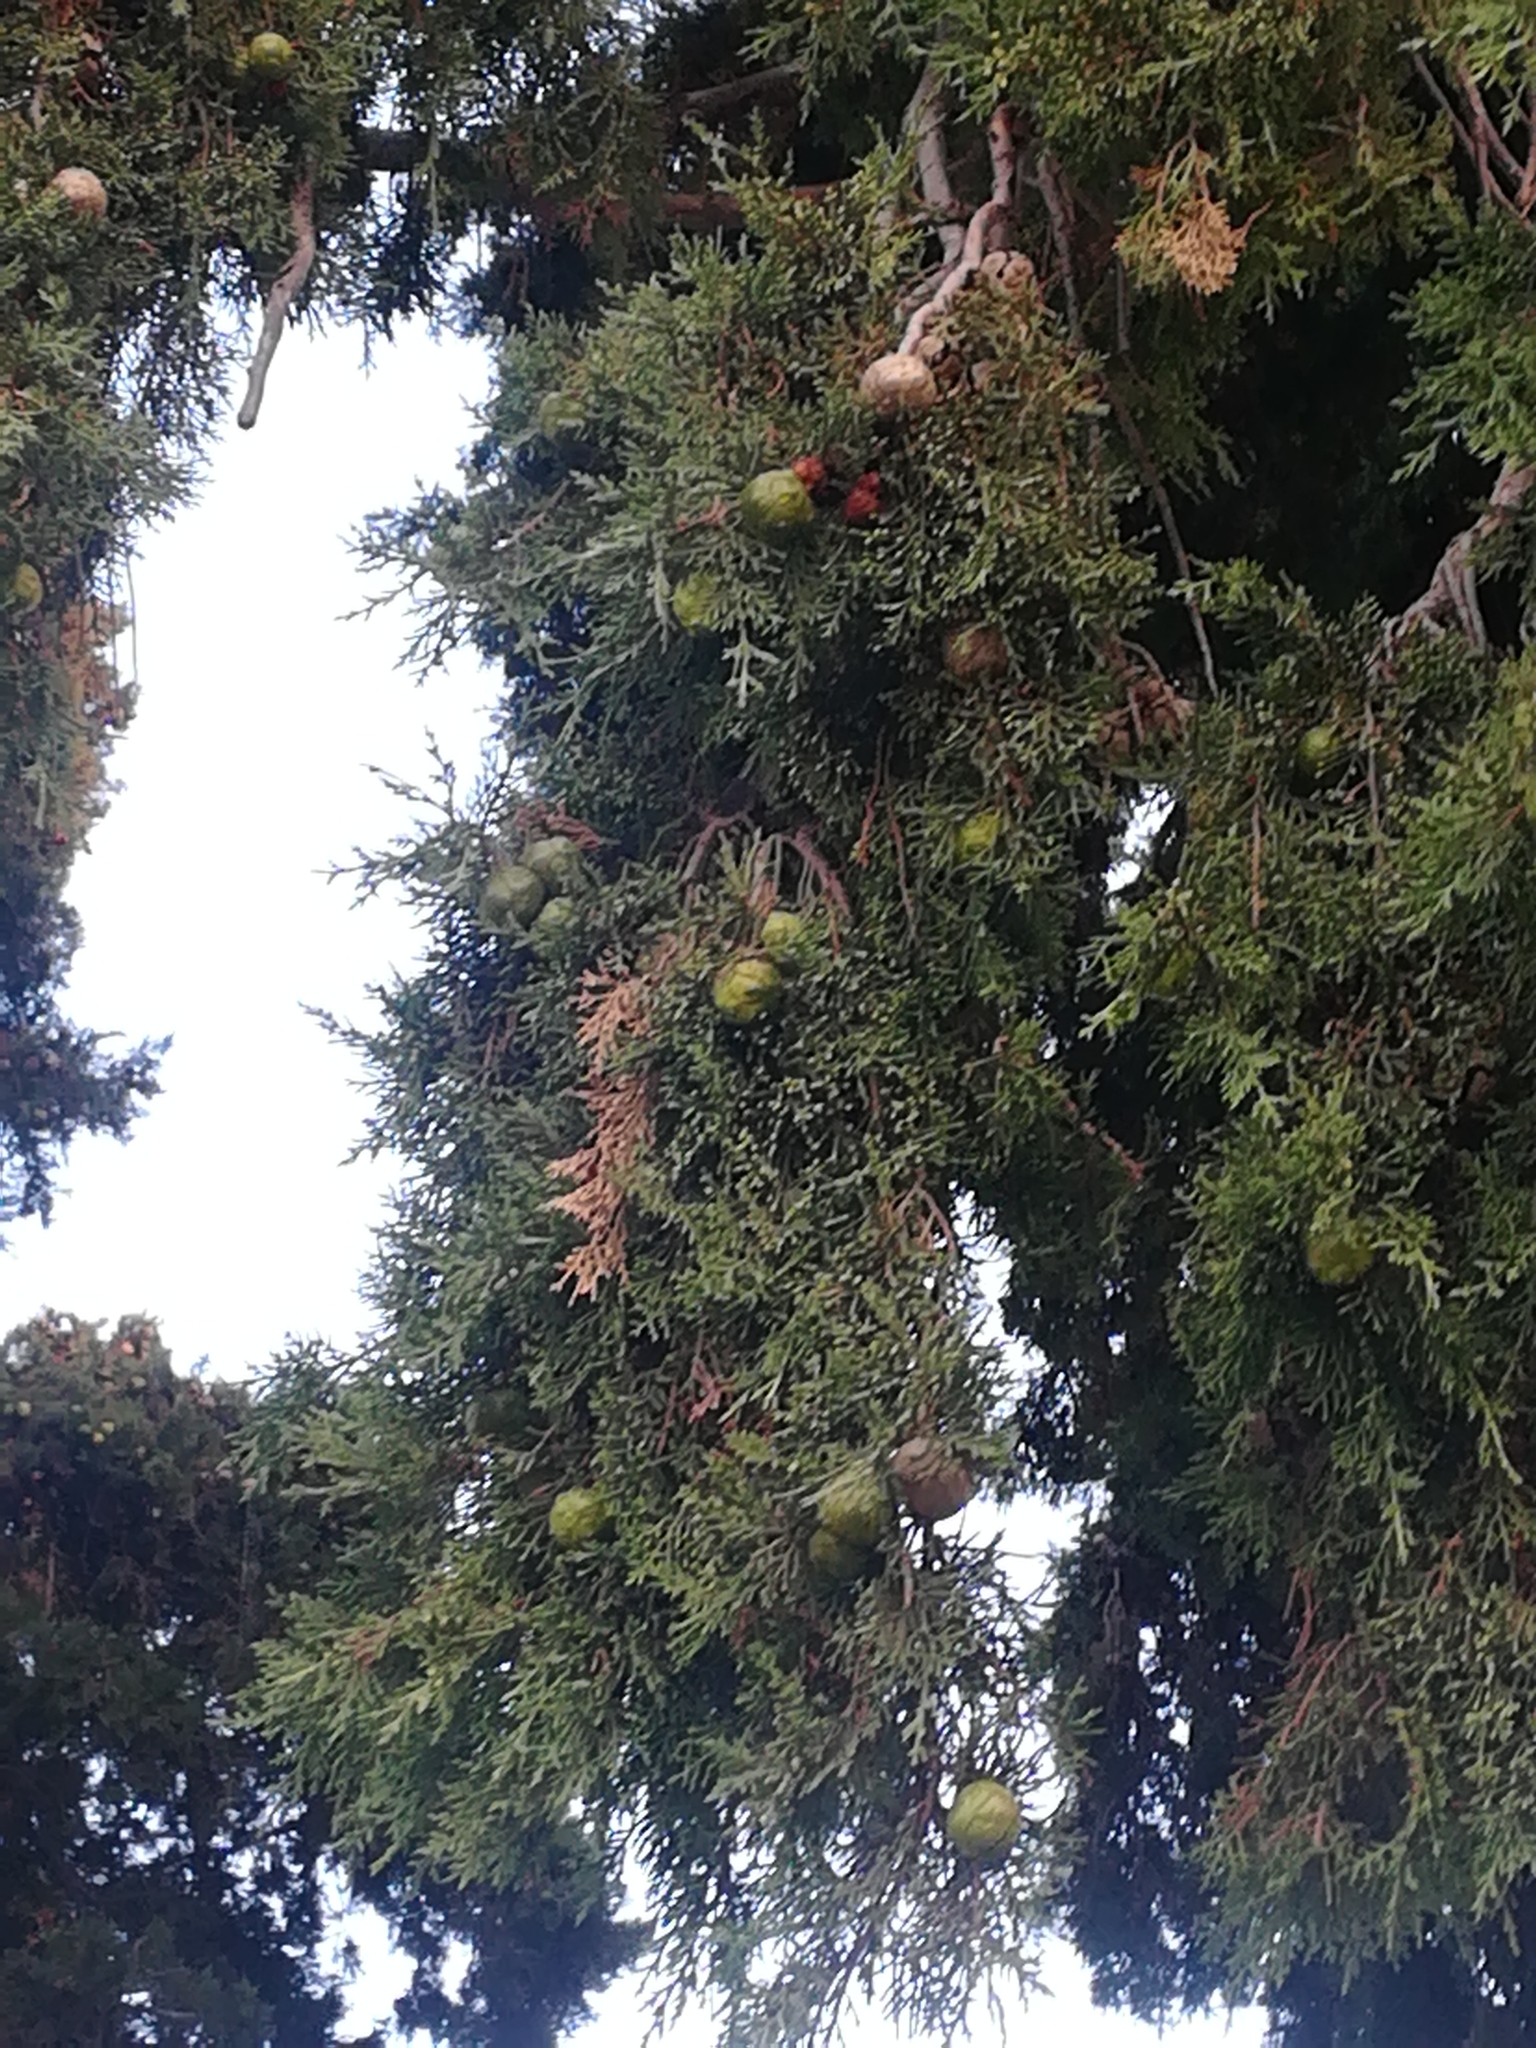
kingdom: Plantae
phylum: Tracheophyta
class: Pinopsida
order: Pinales
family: Cupressaceae
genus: Cupressus
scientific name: Cupressus sempervirens
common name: Italian cypress
